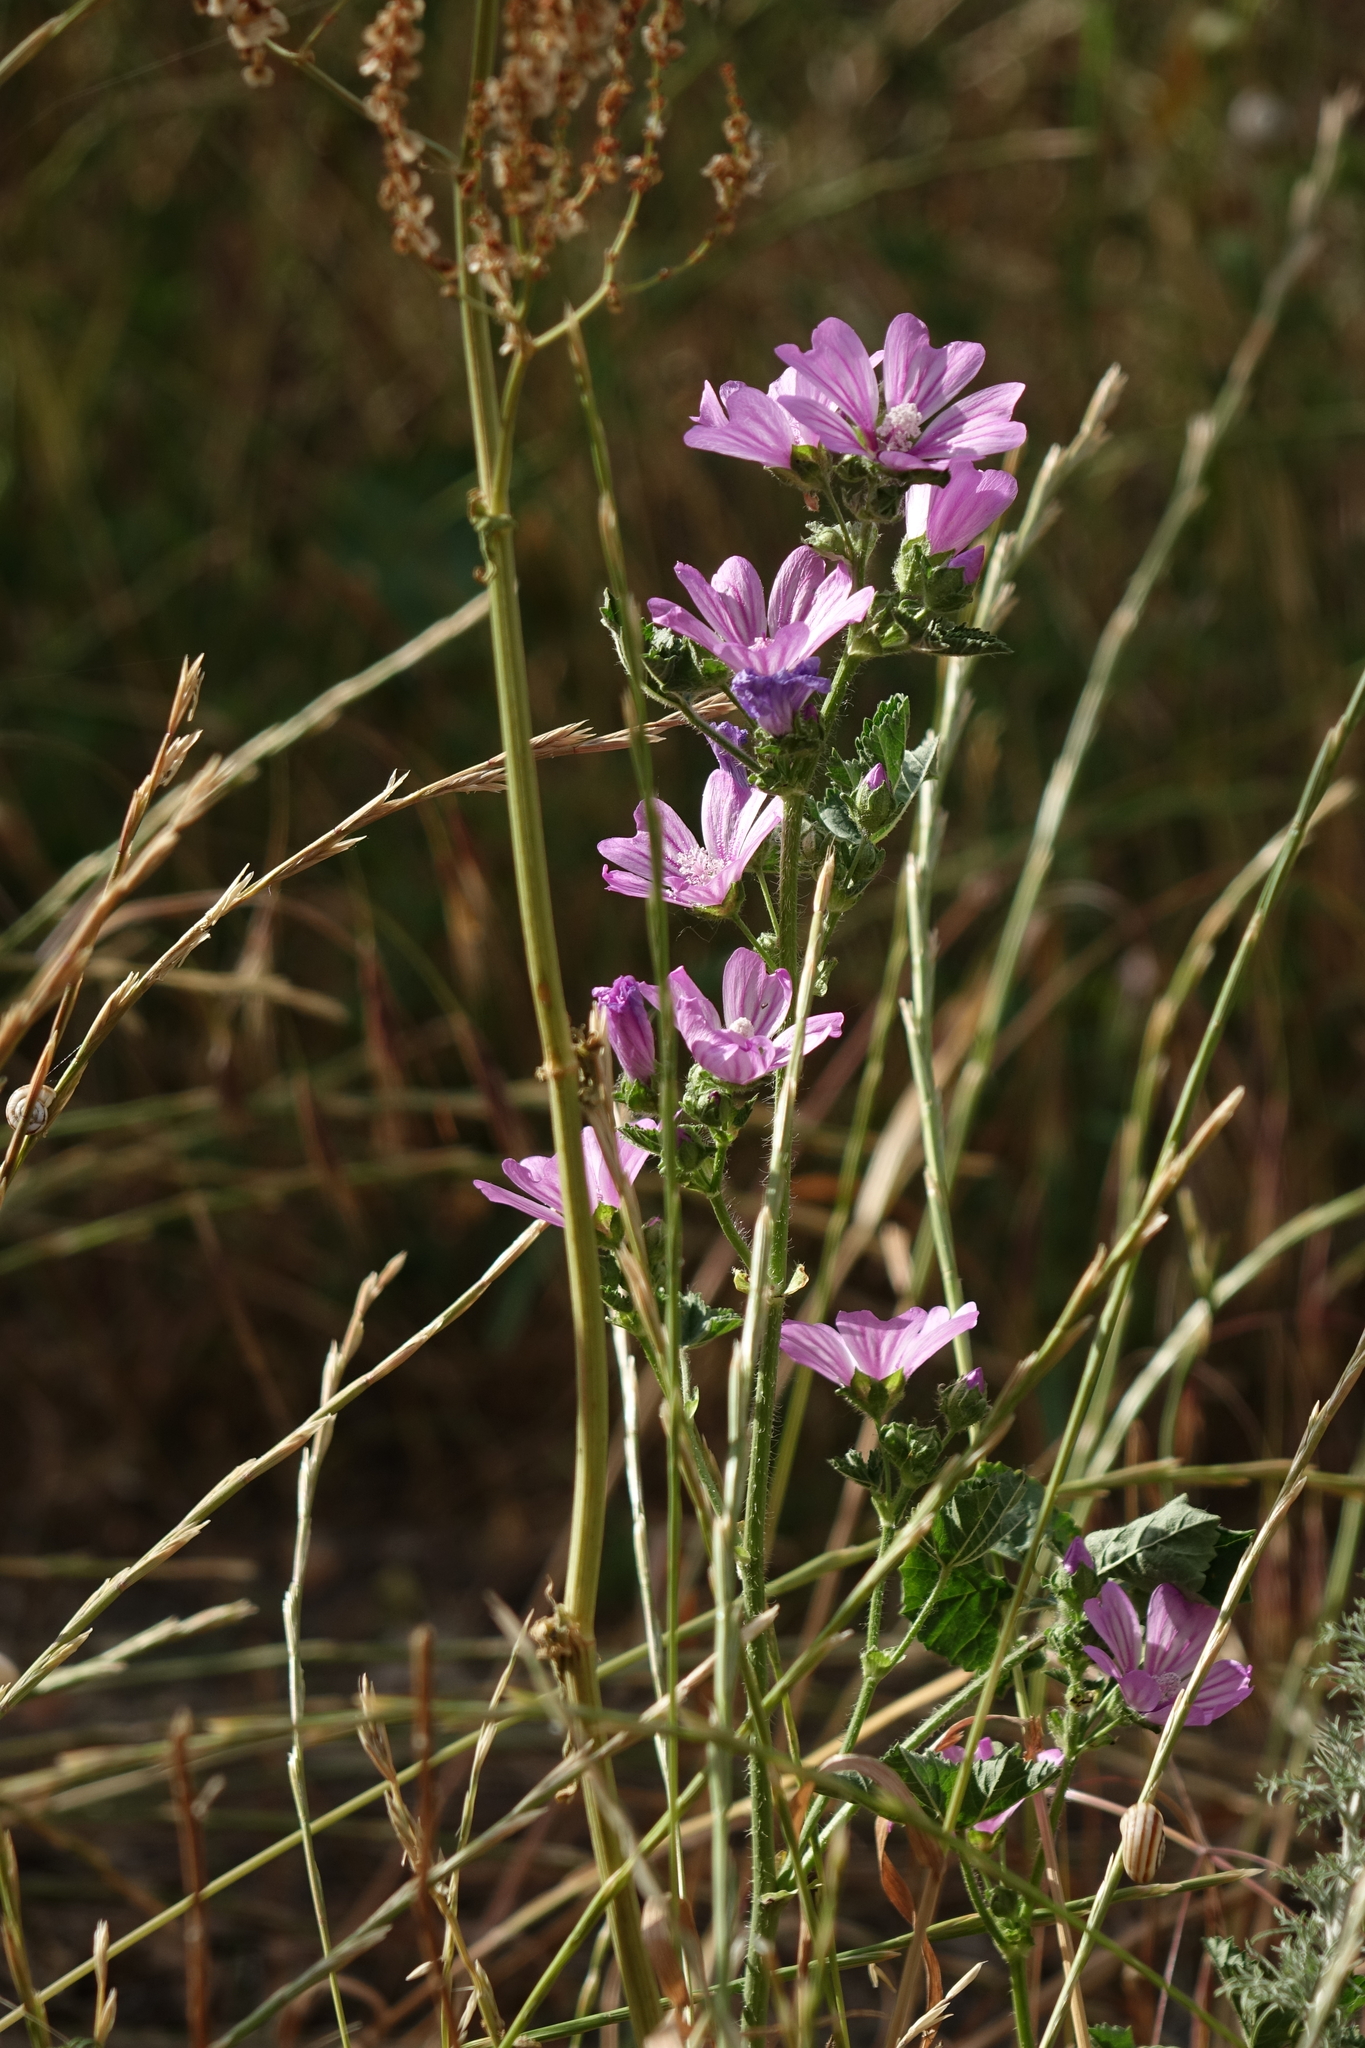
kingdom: Plantae
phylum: Tracheophyta
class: Magnoliopsida
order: Malvales
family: Malvaceae
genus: Malva
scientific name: Malva sylvestris
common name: Common mallow
